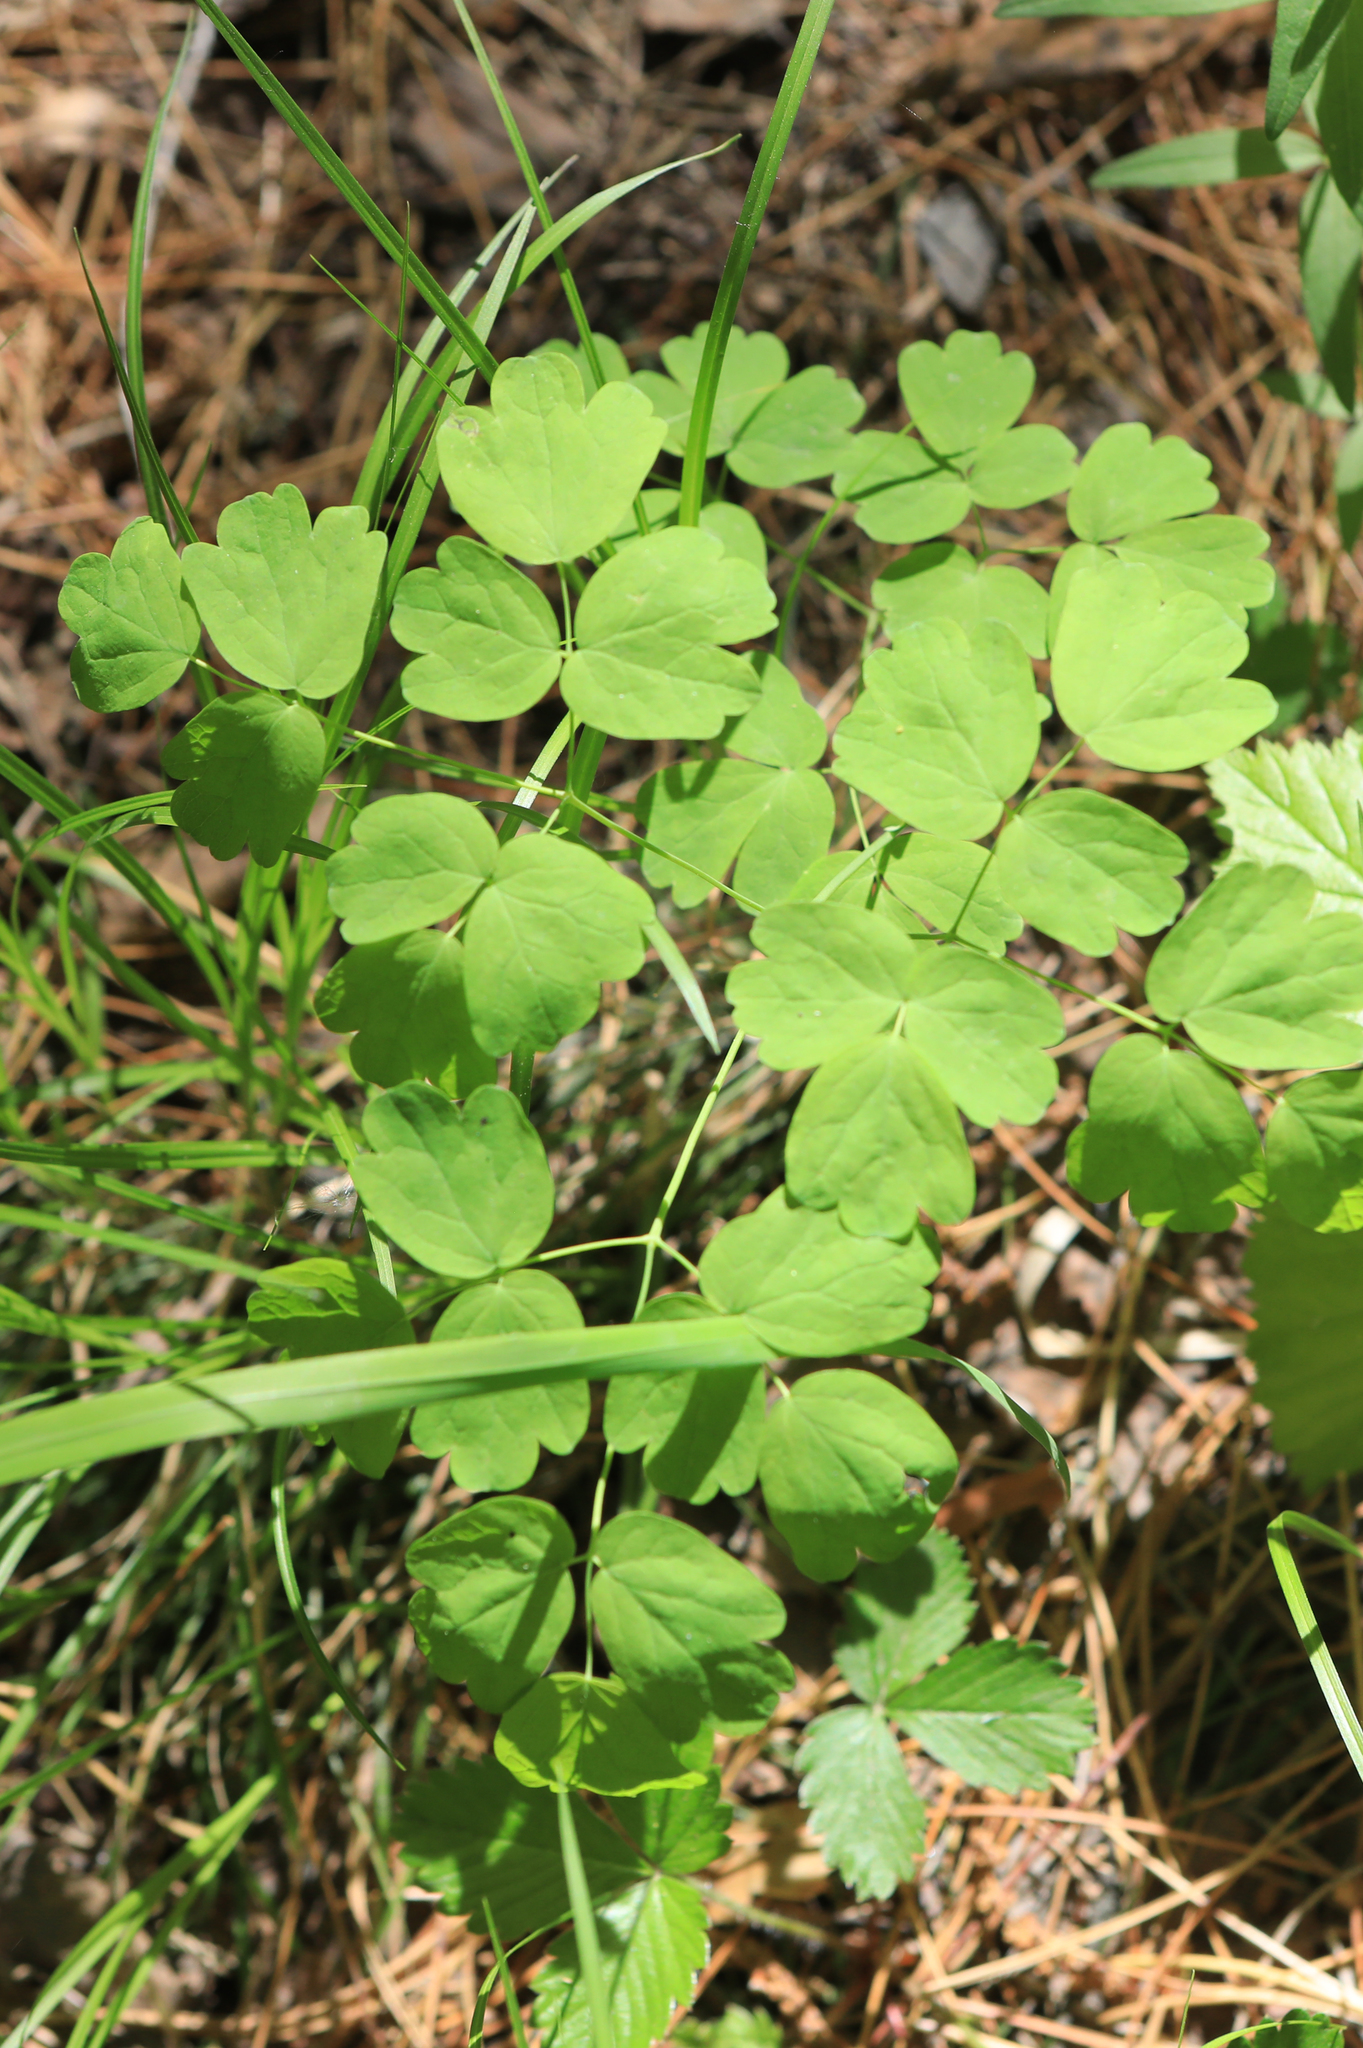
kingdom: Plantae
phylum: Tracheophyta
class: Magnoliopsida
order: Ranunculales
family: Ranunculaceae
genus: Thalictrum
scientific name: Thalictrum minus
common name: Lesser meadow-rue
